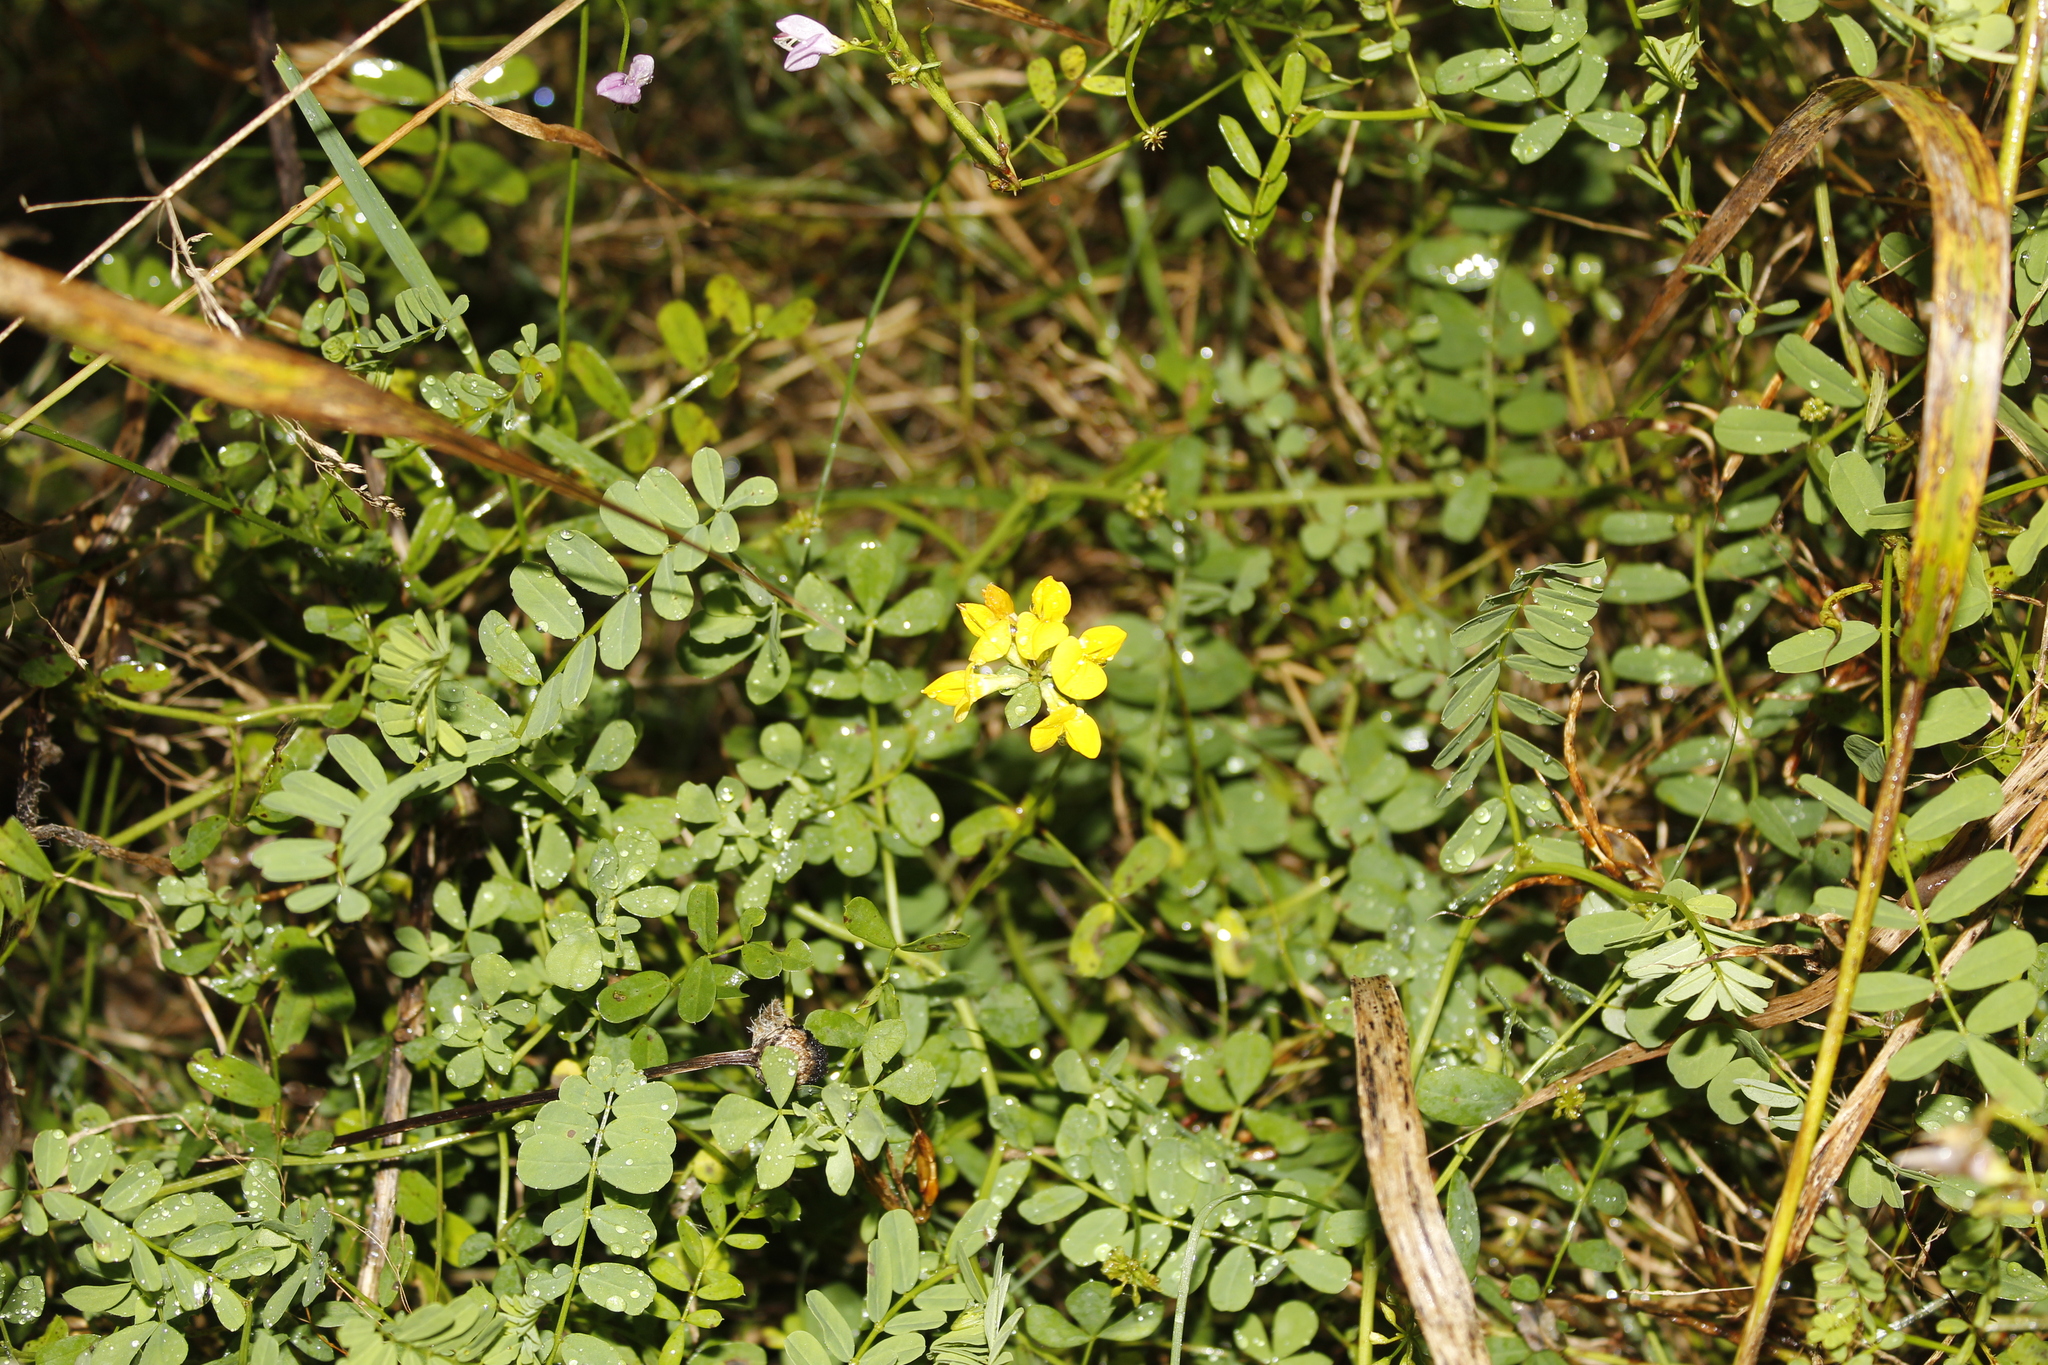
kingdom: Plantae
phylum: Tracheophyta
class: Magnoliopsida
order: Fabales
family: Fabaceae
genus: Coronilla
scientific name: Coronilla varia
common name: Crownvetch
